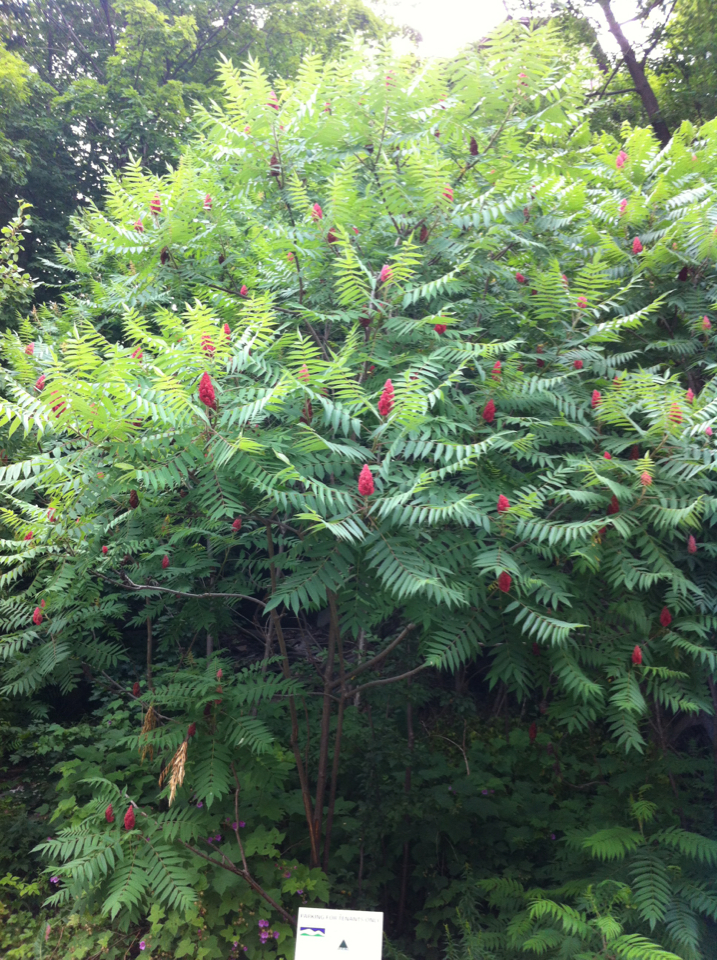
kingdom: Plantae
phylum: Tracheophyta
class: Magnoliopsida
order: Sapindales
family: Anacardiaceae
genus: Rhus
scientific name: Rhus typhina
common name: Staghorn sumac
